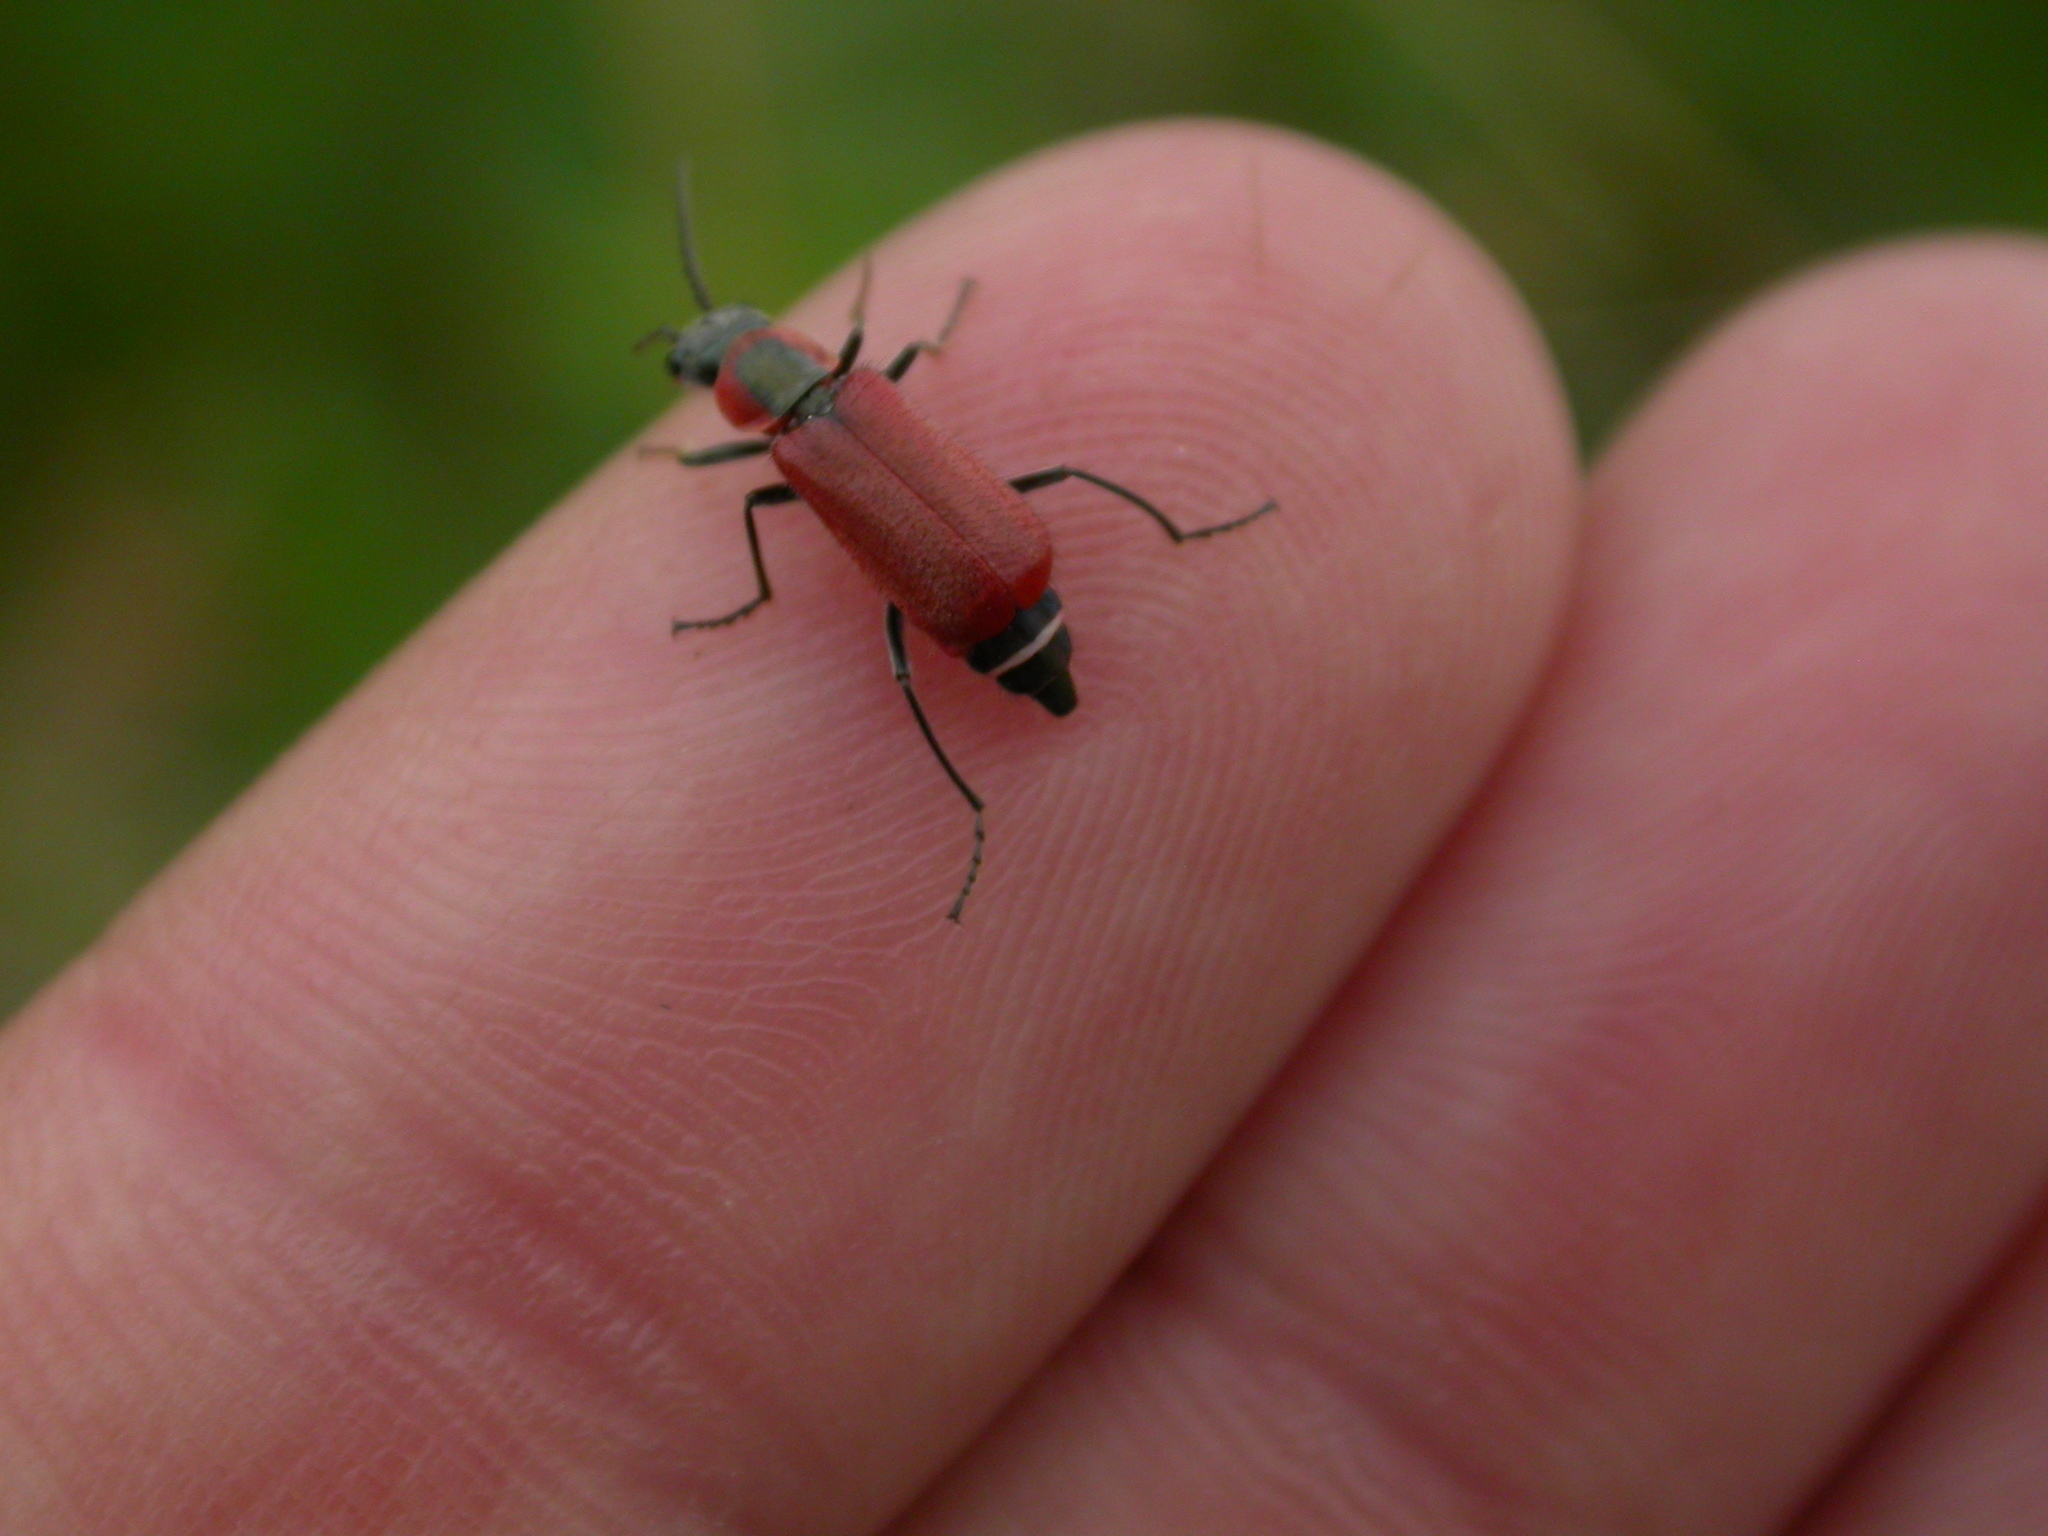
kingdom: Animalia
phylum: Arthropoda
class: Insecta
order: Coleoptera
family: Malachiidae
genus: Clanoptilus
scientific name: Clanoptilus rufus
